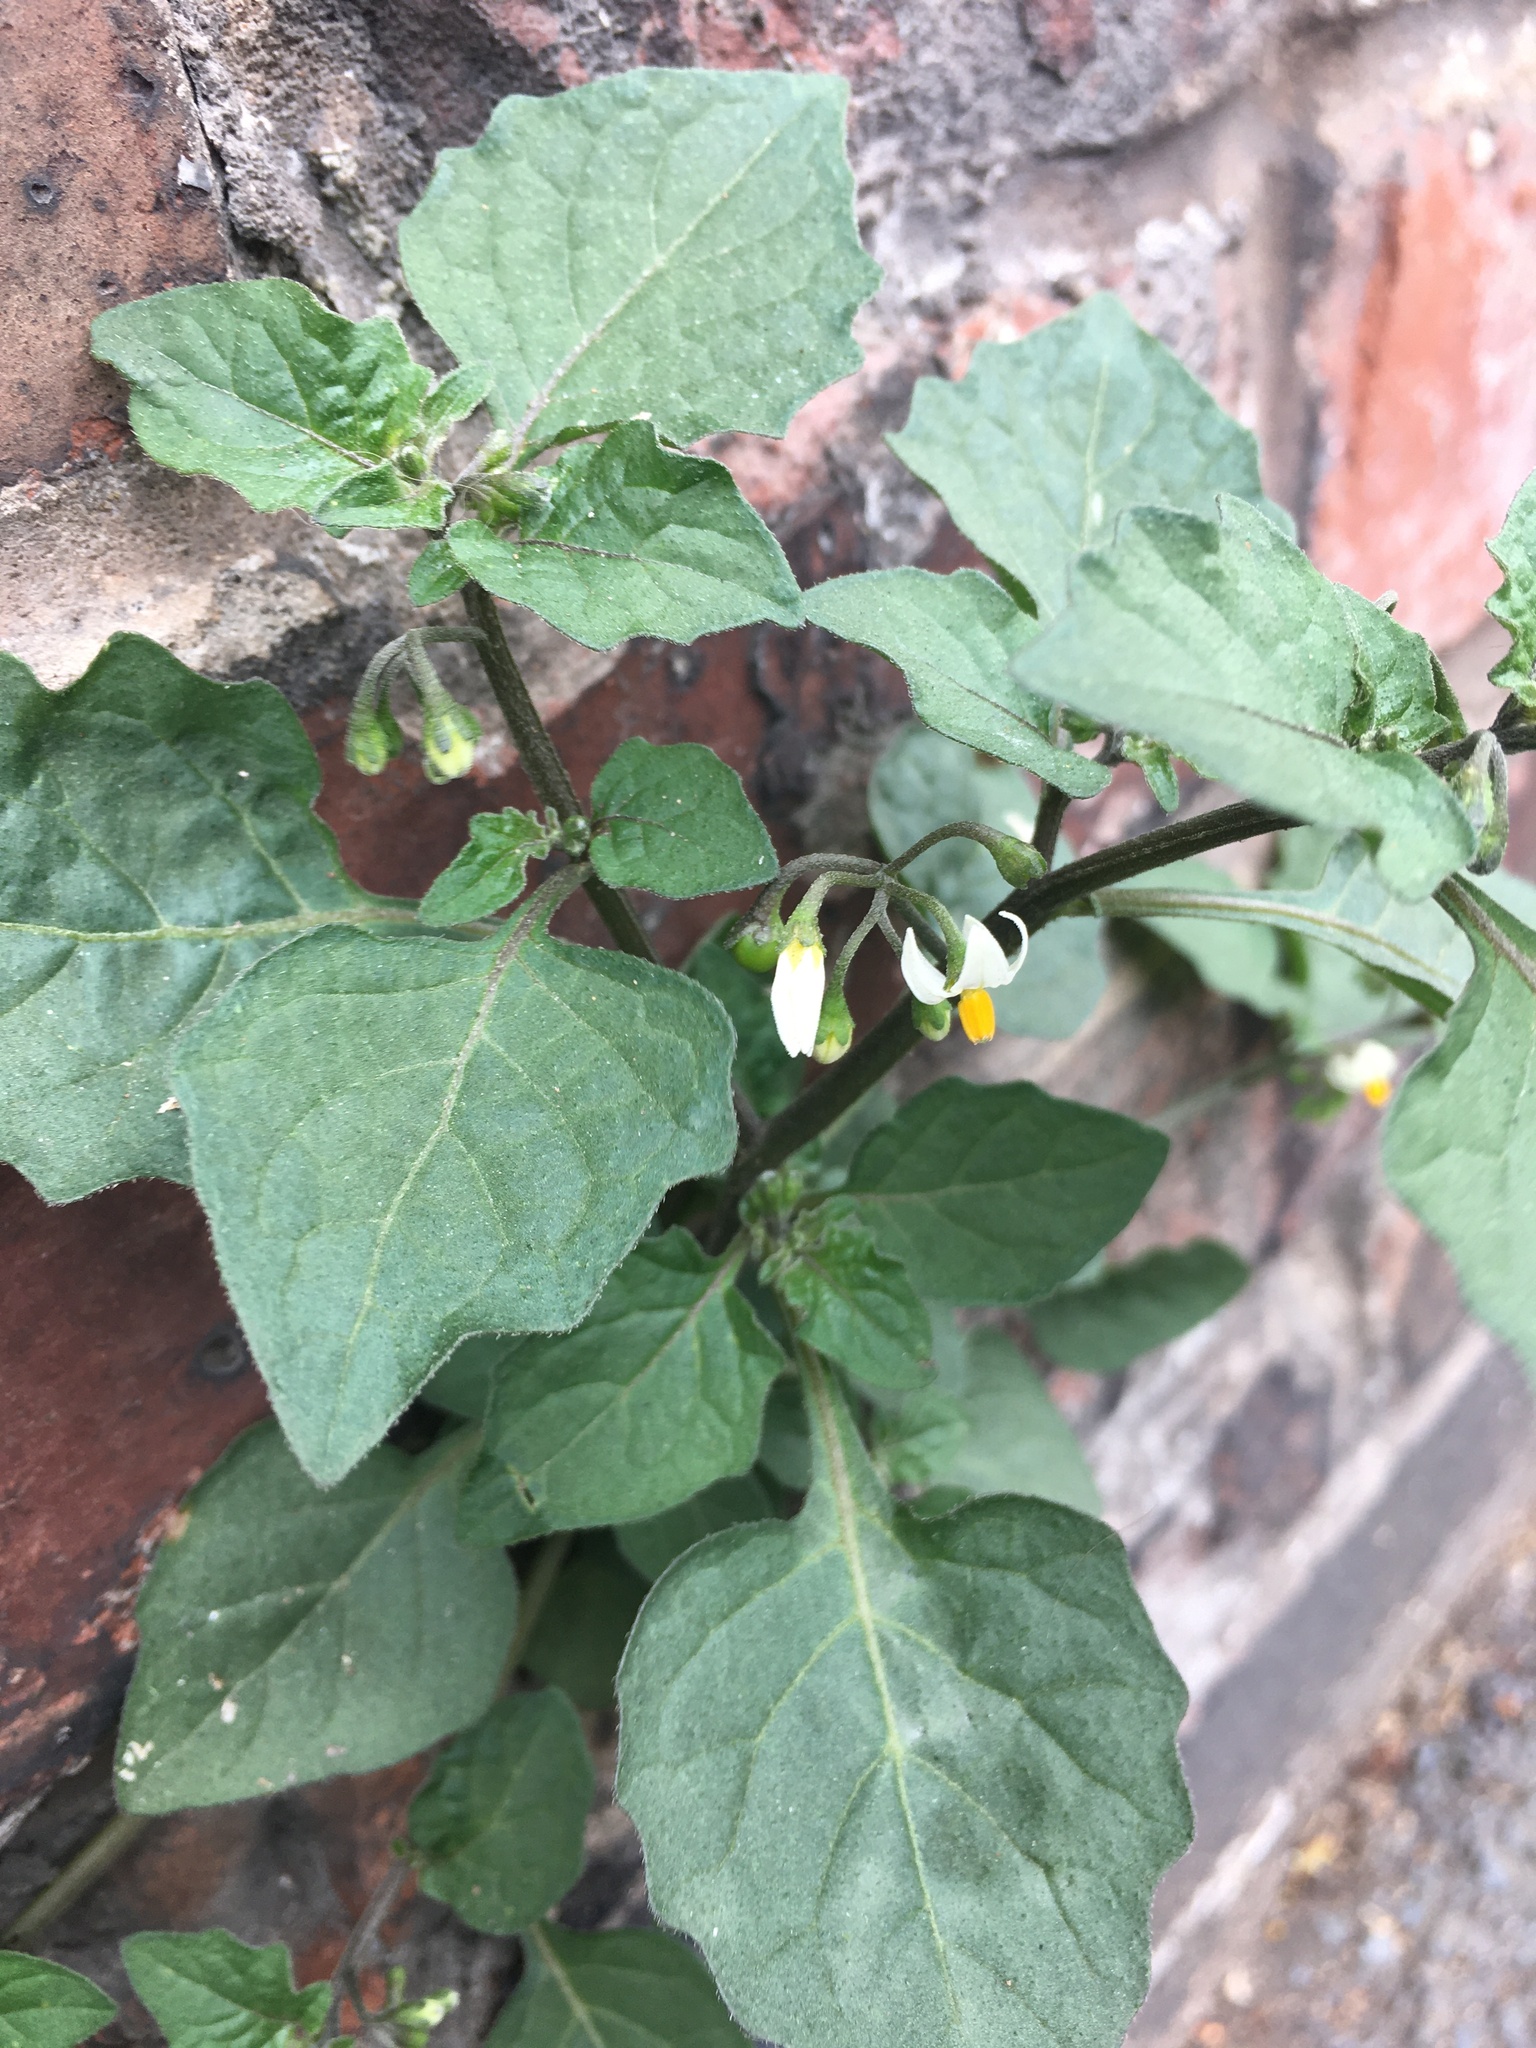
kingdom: Plantae
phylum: Tracheophyta
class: Magnoliopsida
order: Solanales
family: Solanaceae
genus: Solanum
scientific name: Solanum nigrum
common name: Black nightshade
